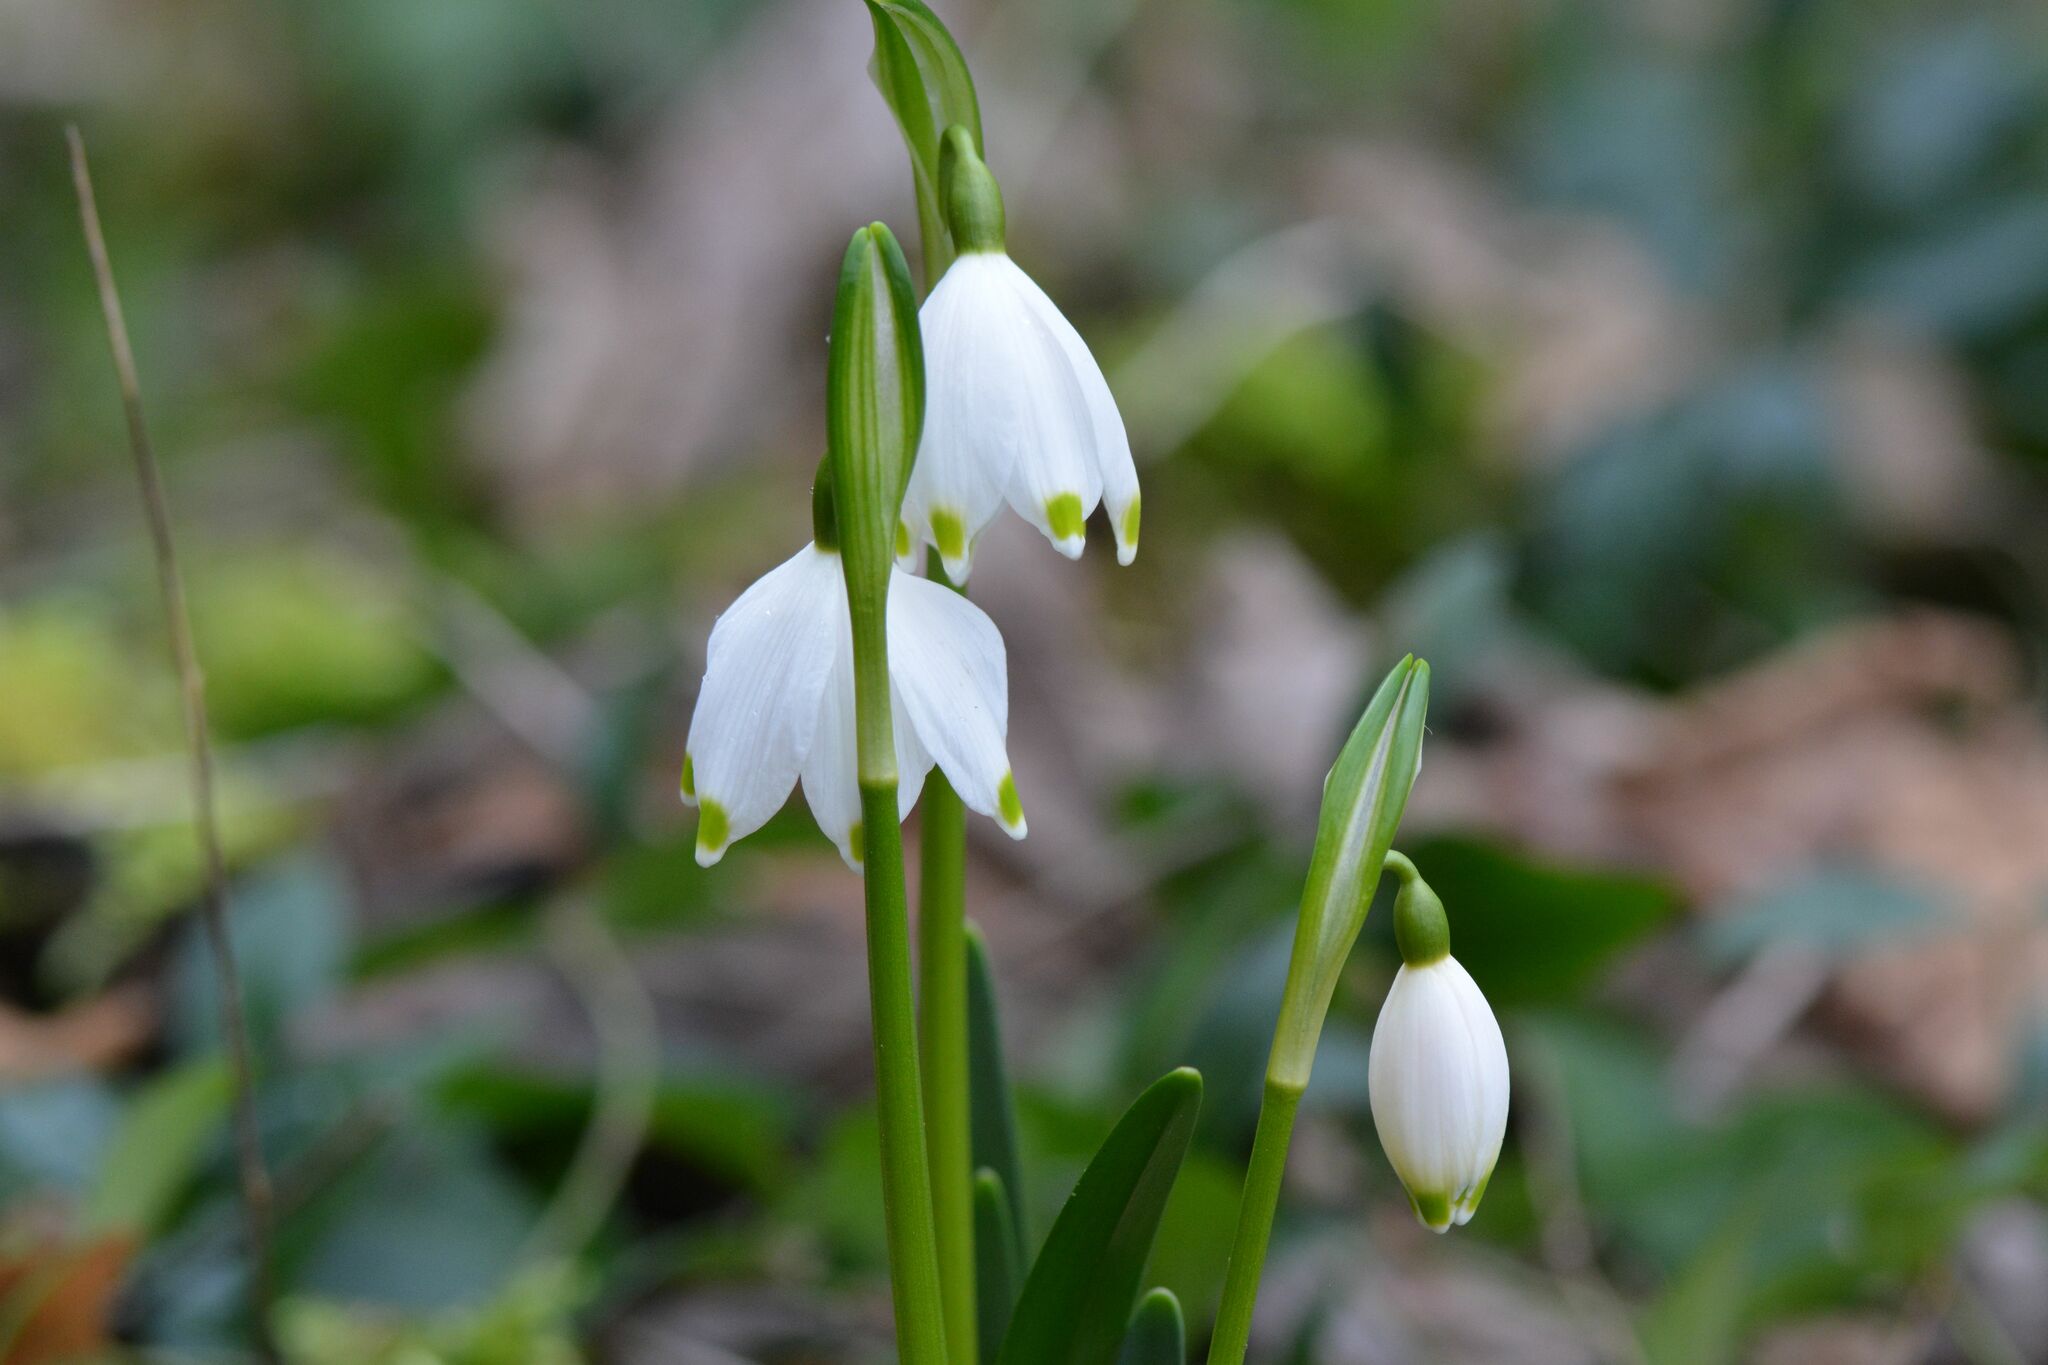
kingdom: Plantae
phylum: Tracheophyta
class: Liliopsida
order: Asparagales
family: Amaryllidaceae
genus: Leucojum
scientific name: Leucojum vernum
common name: Spring snowflake
